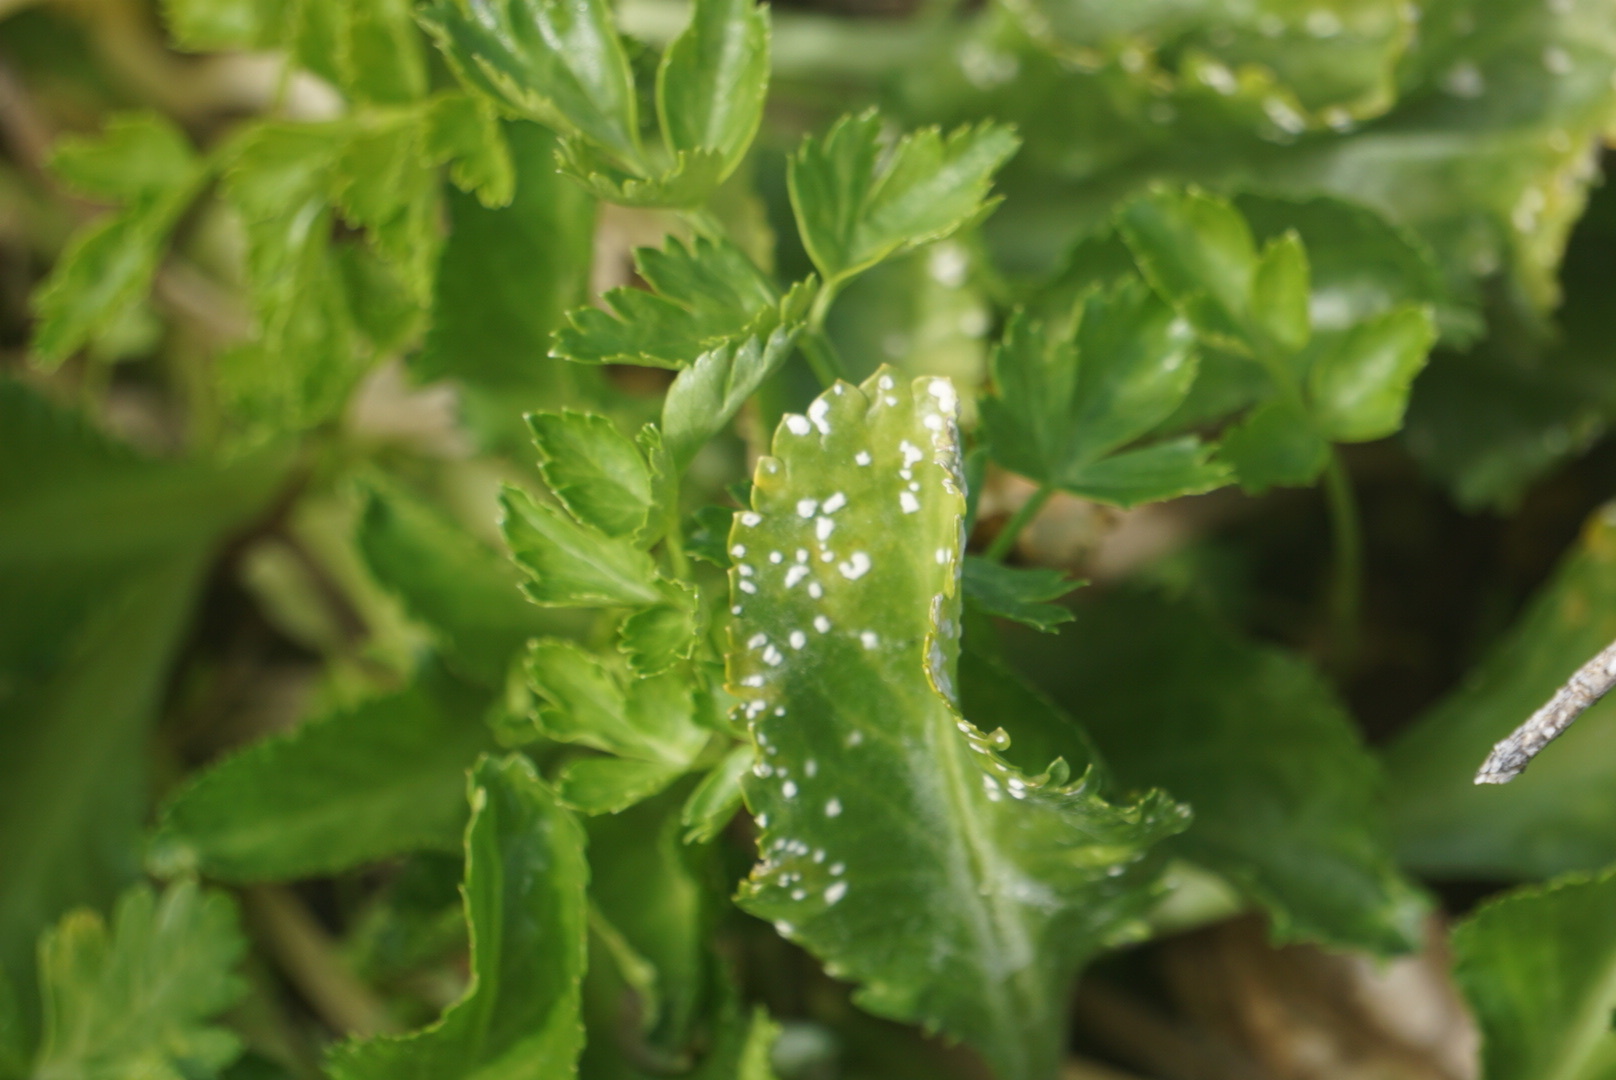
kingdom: Chromista
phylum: Oomycota
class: Peronosporea
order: Albuginales
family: Albuginaceae
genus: Albugo
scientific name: Albugo candida
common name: Crucifer white blister
